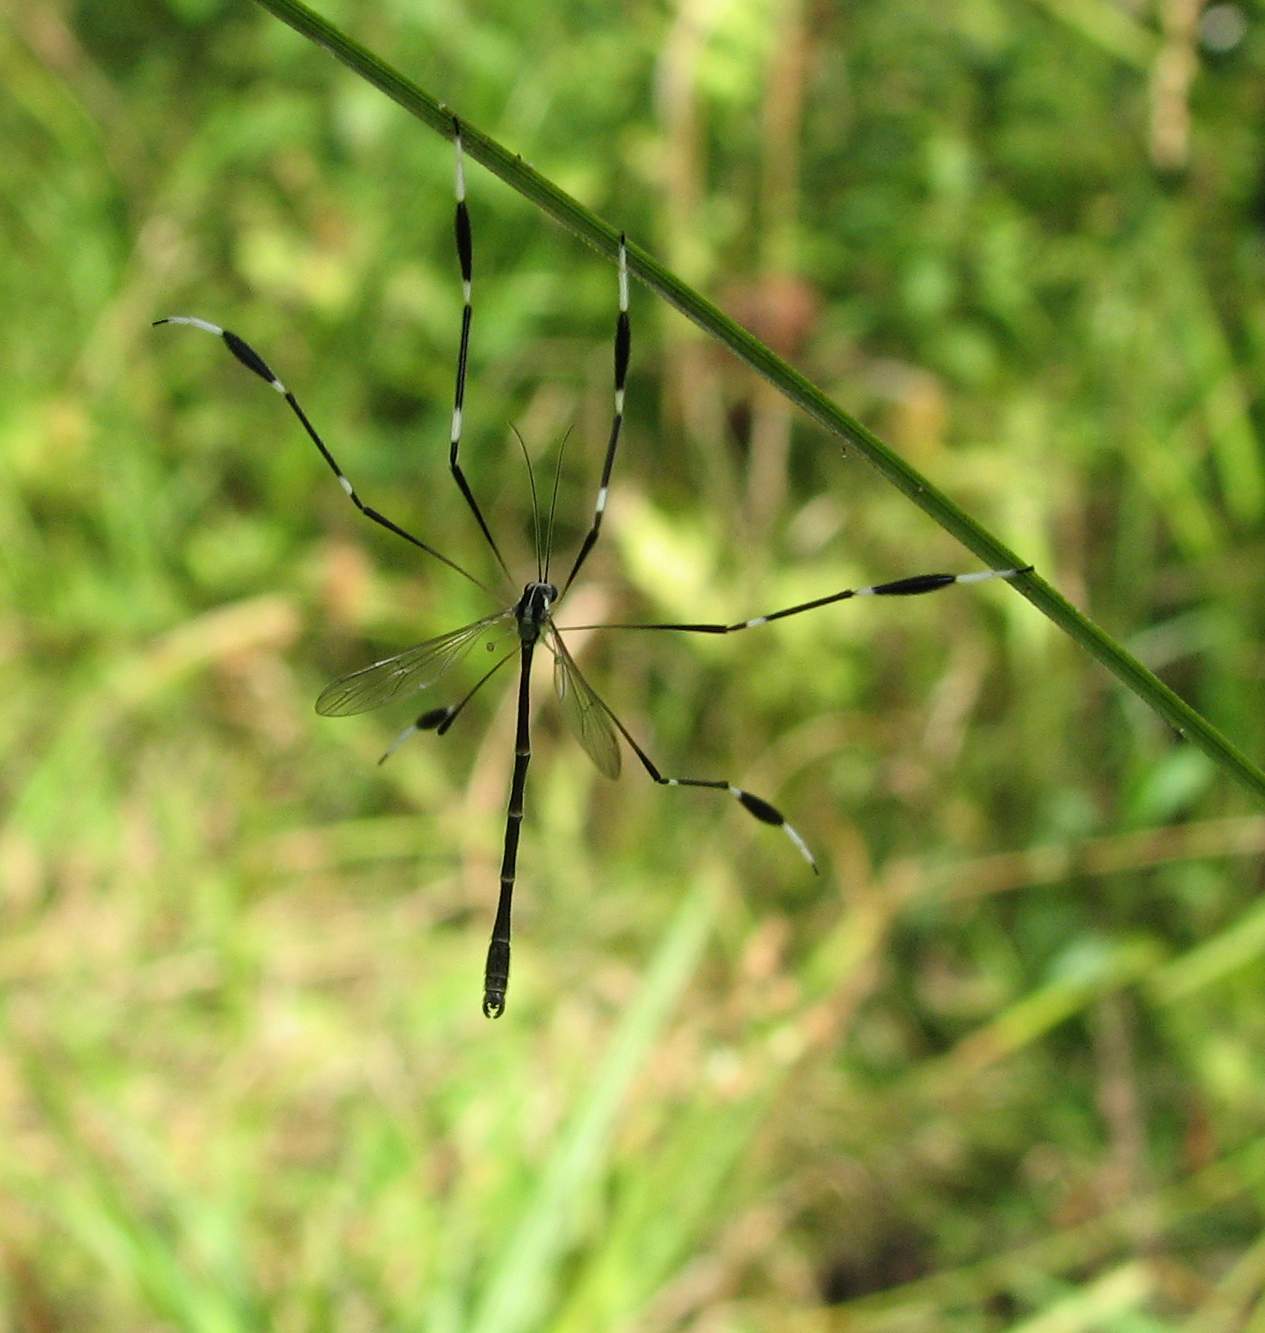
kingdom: Animalia
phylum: Arthropoda
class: Insecta
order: Diptera
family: Ptychopteridae
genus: Bittacomorpha
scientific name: Bittacomorpha clavipes
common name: Eastern phantom crane fly
